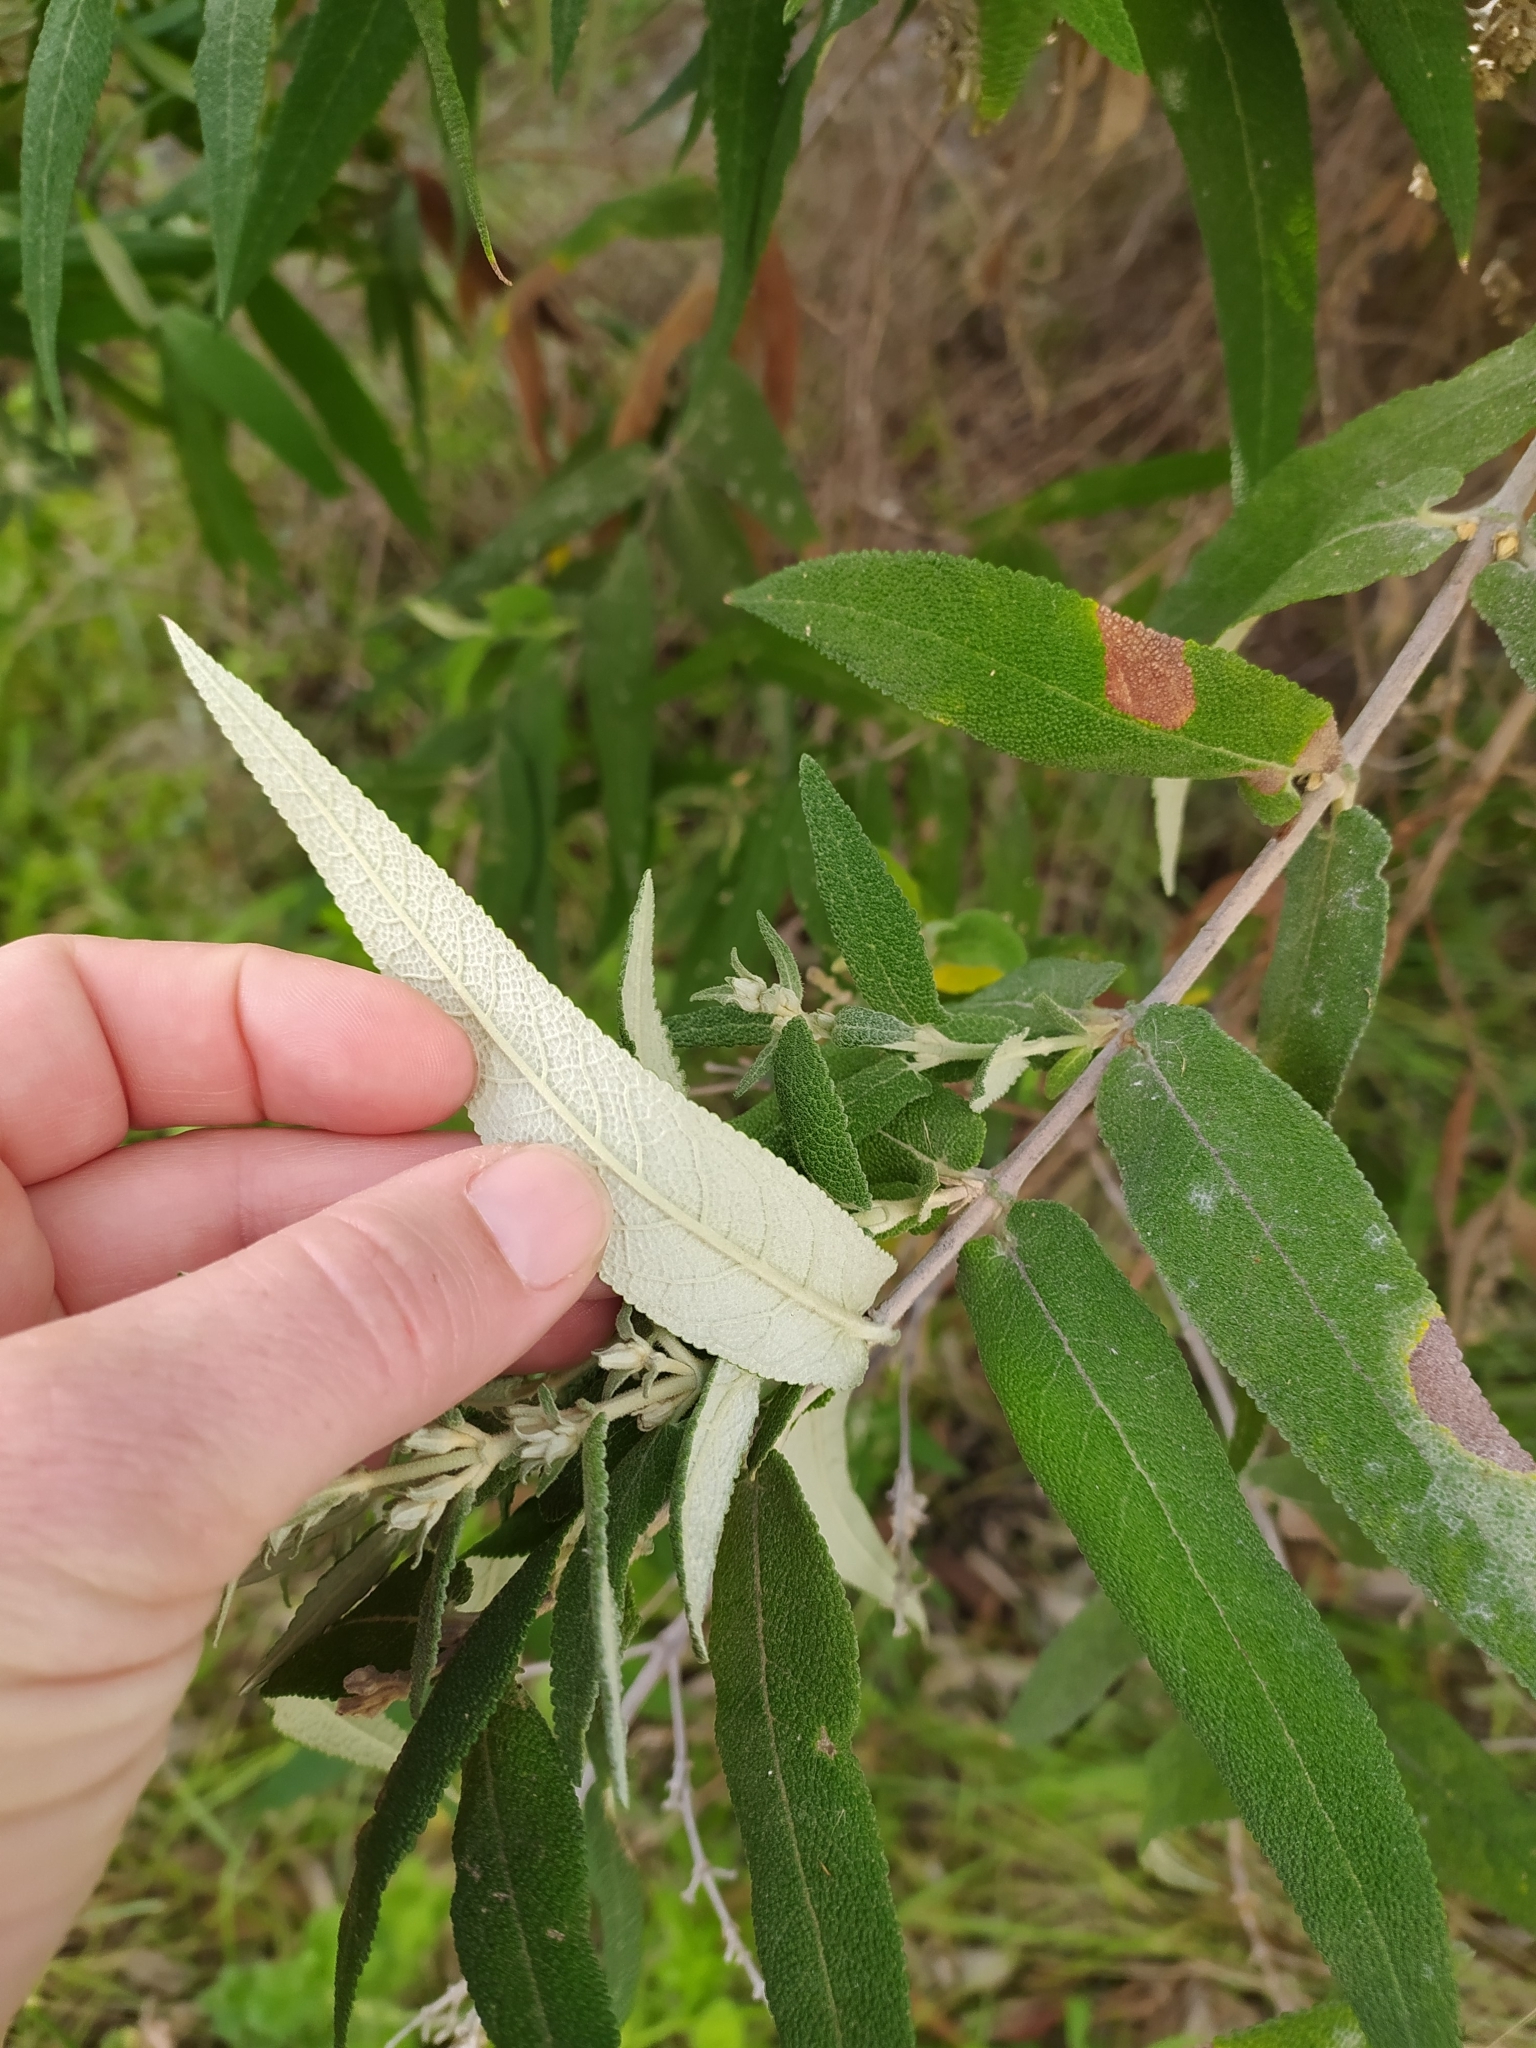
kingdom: Plantae
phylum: Tracheophyta
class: Magnoliopsida
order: Lamiales
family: Scrophulariaceae
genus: Buddleja
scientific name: Buddleja salviifolia
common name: Sagewood
